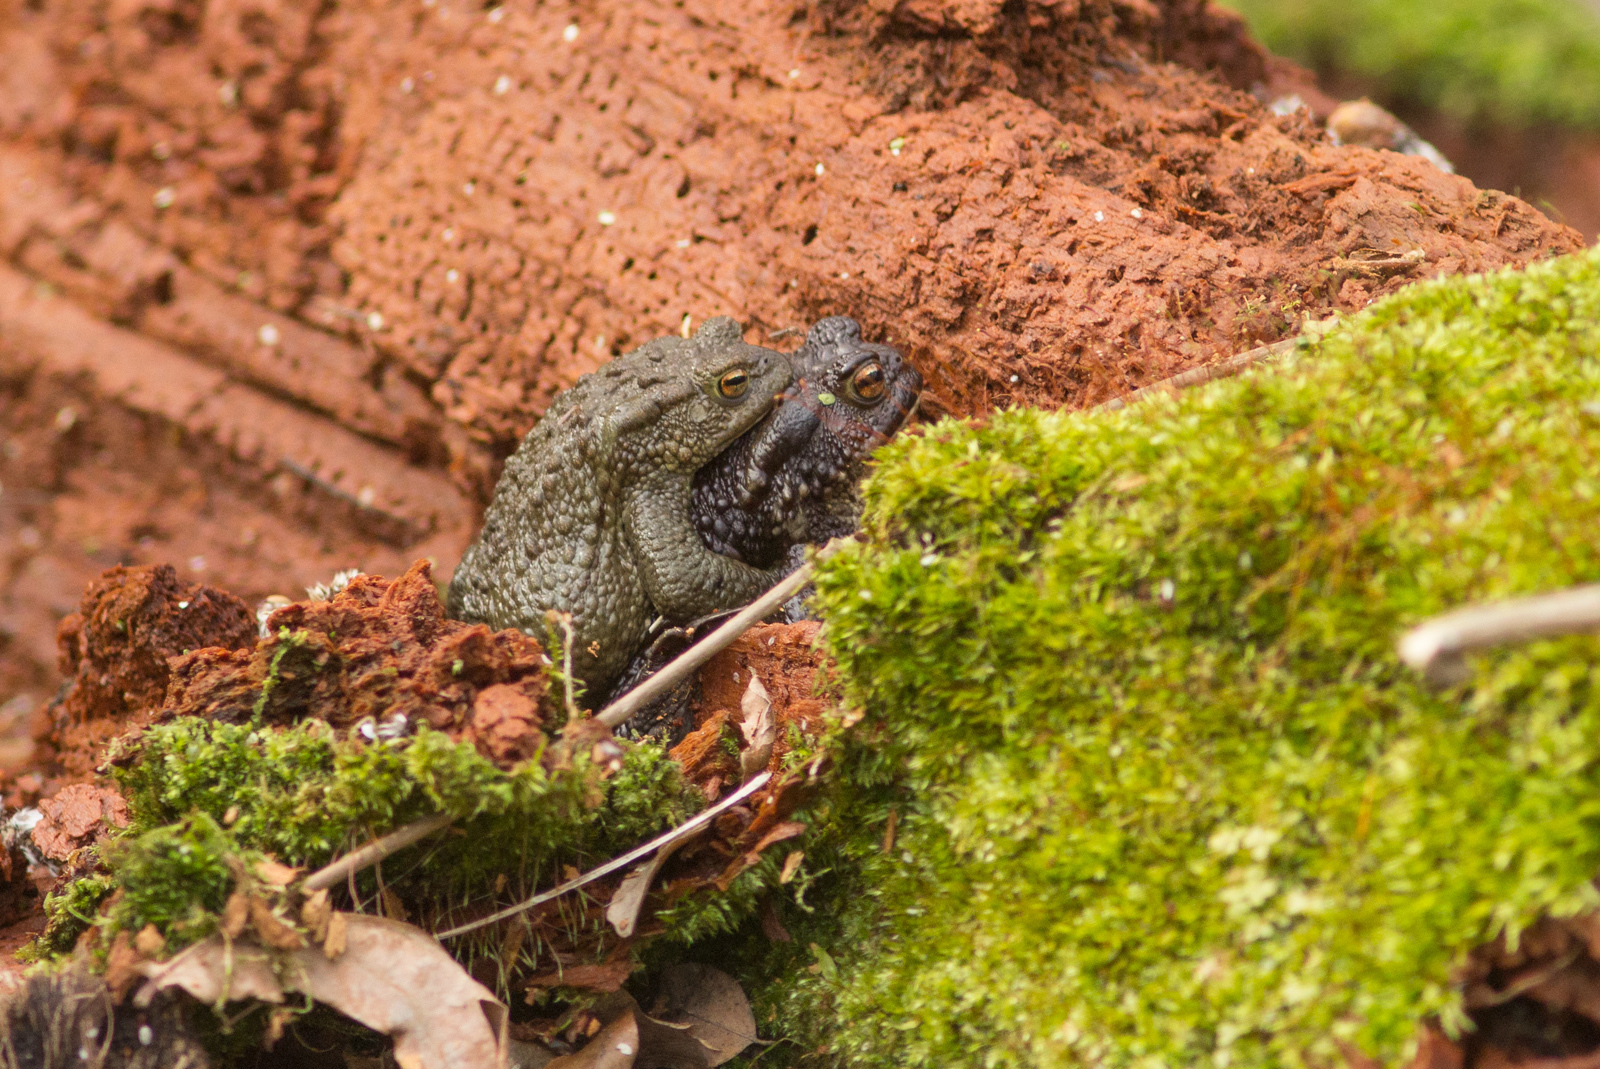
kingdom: Animalia
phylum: Chordata
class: Amphibia
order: Anura
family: Bufonidae
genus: Bufo
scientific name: Bufo bufo
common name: Common toad
